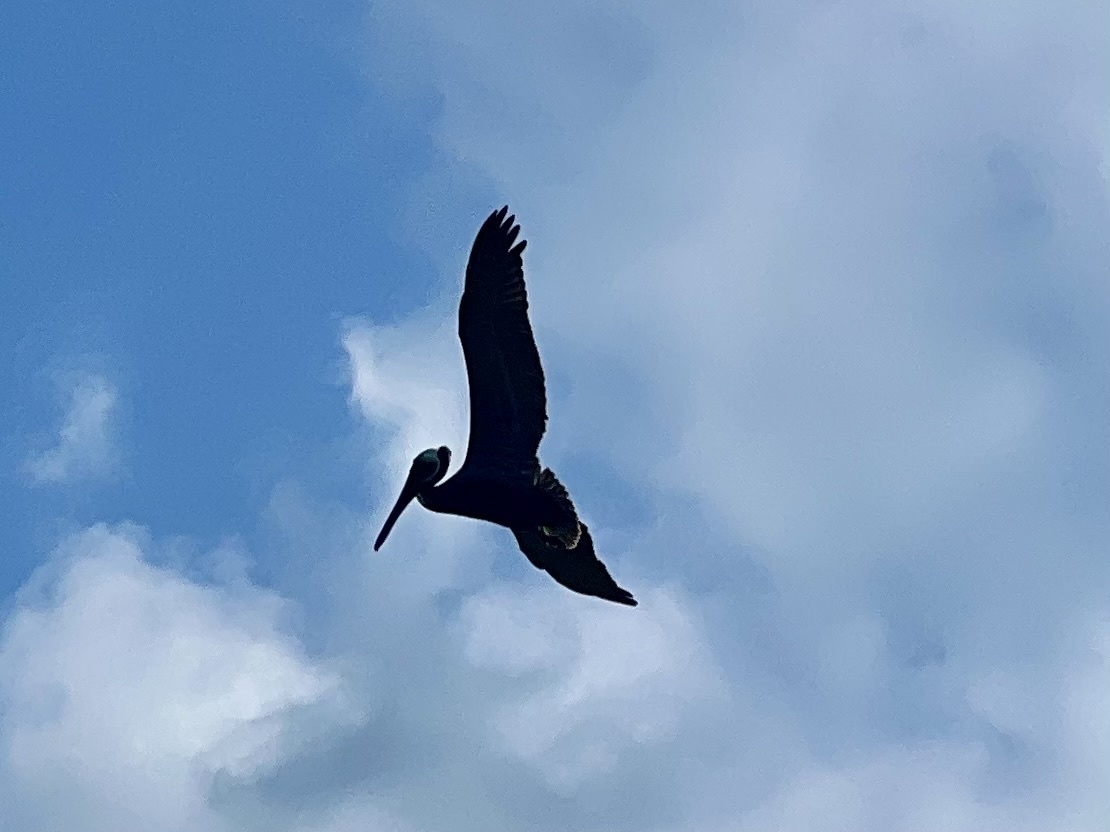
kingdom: Animalia
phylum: Chordata
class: Aves
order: Pelecaniformes
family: Pelecanidae
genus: Pelecanus
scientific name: Pelecanus occidentalis
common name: Brown pelican
